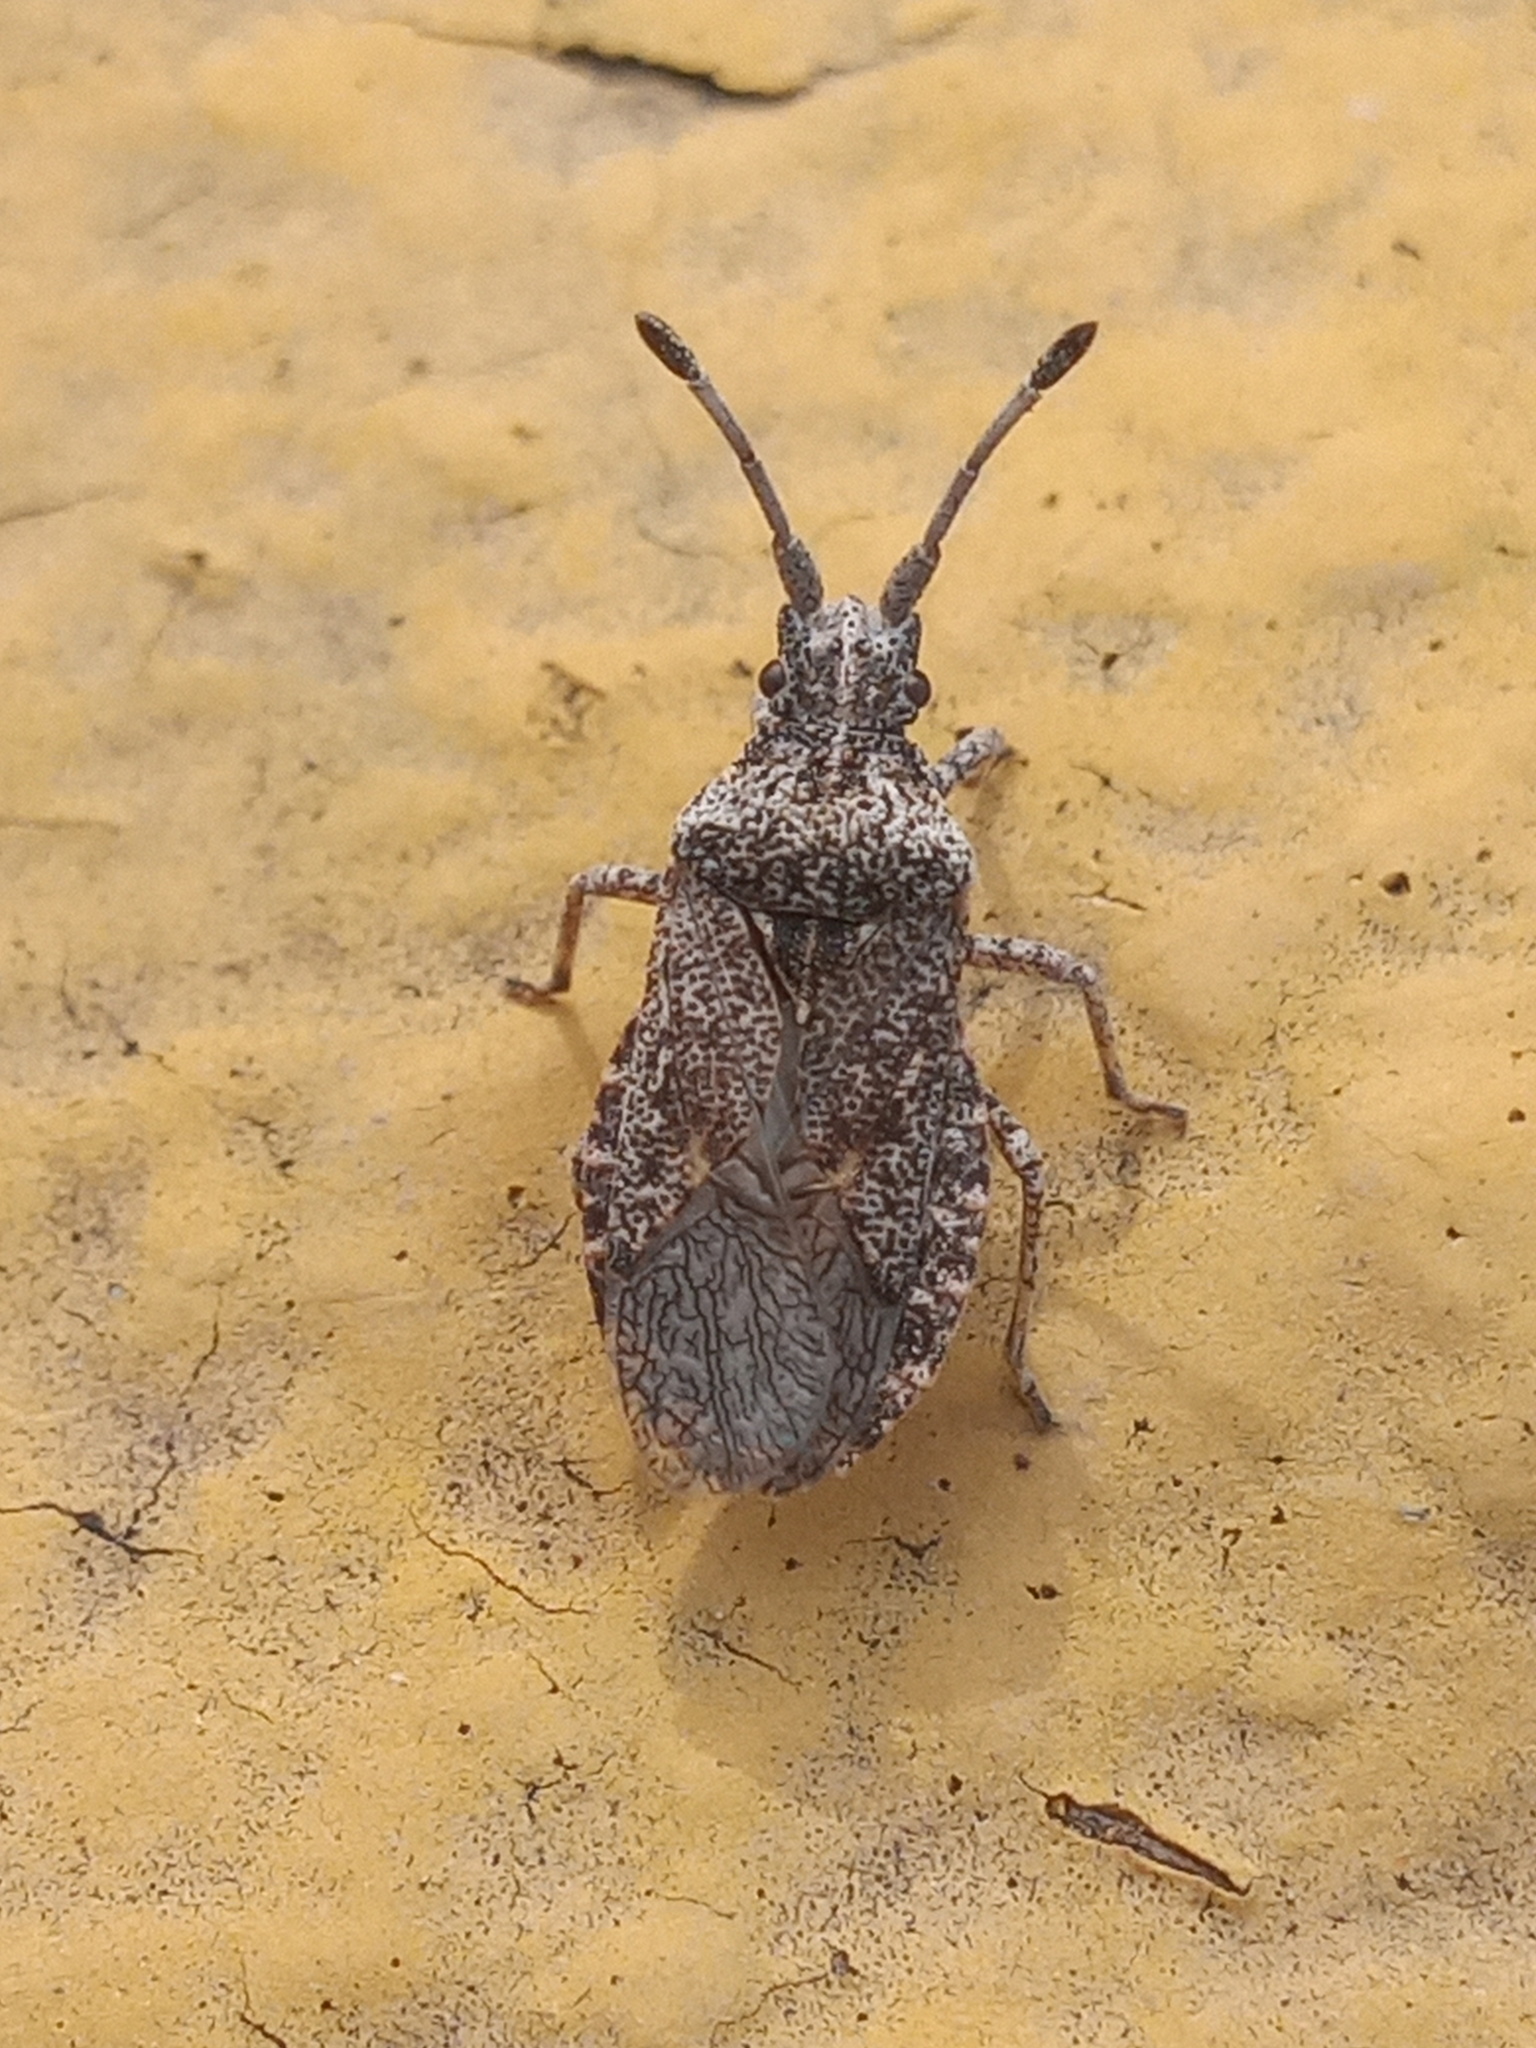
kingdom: Animalia
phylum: Arthropoda
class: Insecta
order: Hemiptera
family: Coreidae
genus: Scolopocerus
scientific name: Scolopocerus uhleri
